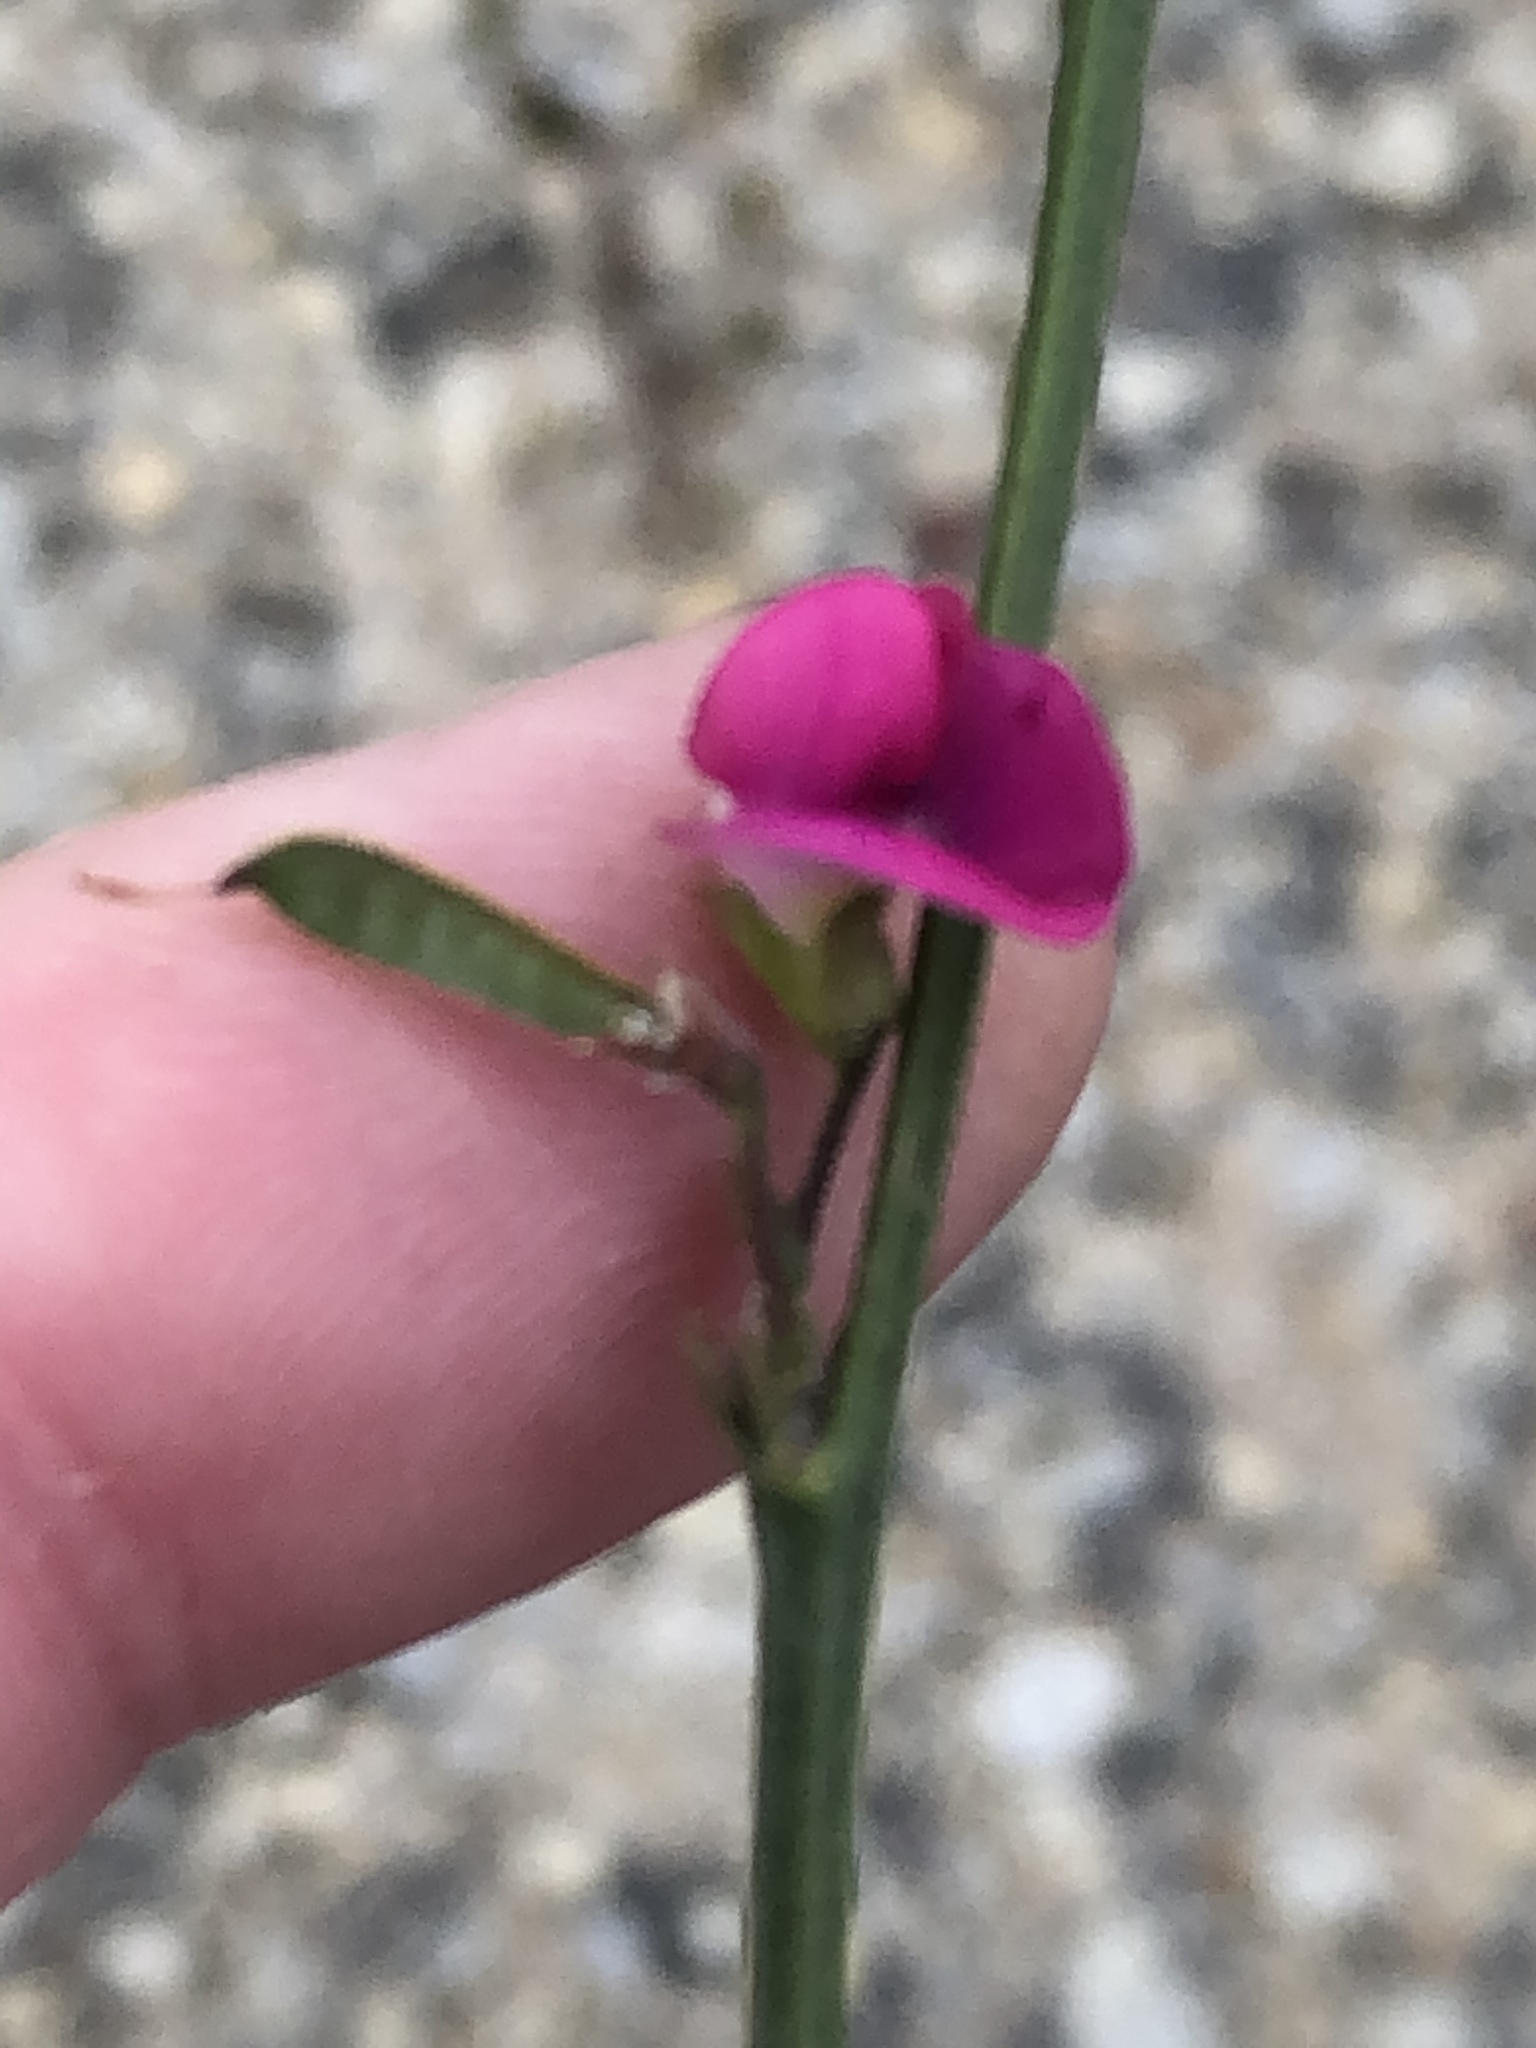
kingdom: Plantae
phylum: Tracheophyta
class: Magnoliopsida
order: Fabales
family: Fabaceae
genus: Tephrosia
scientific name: Tephrosia capensis
